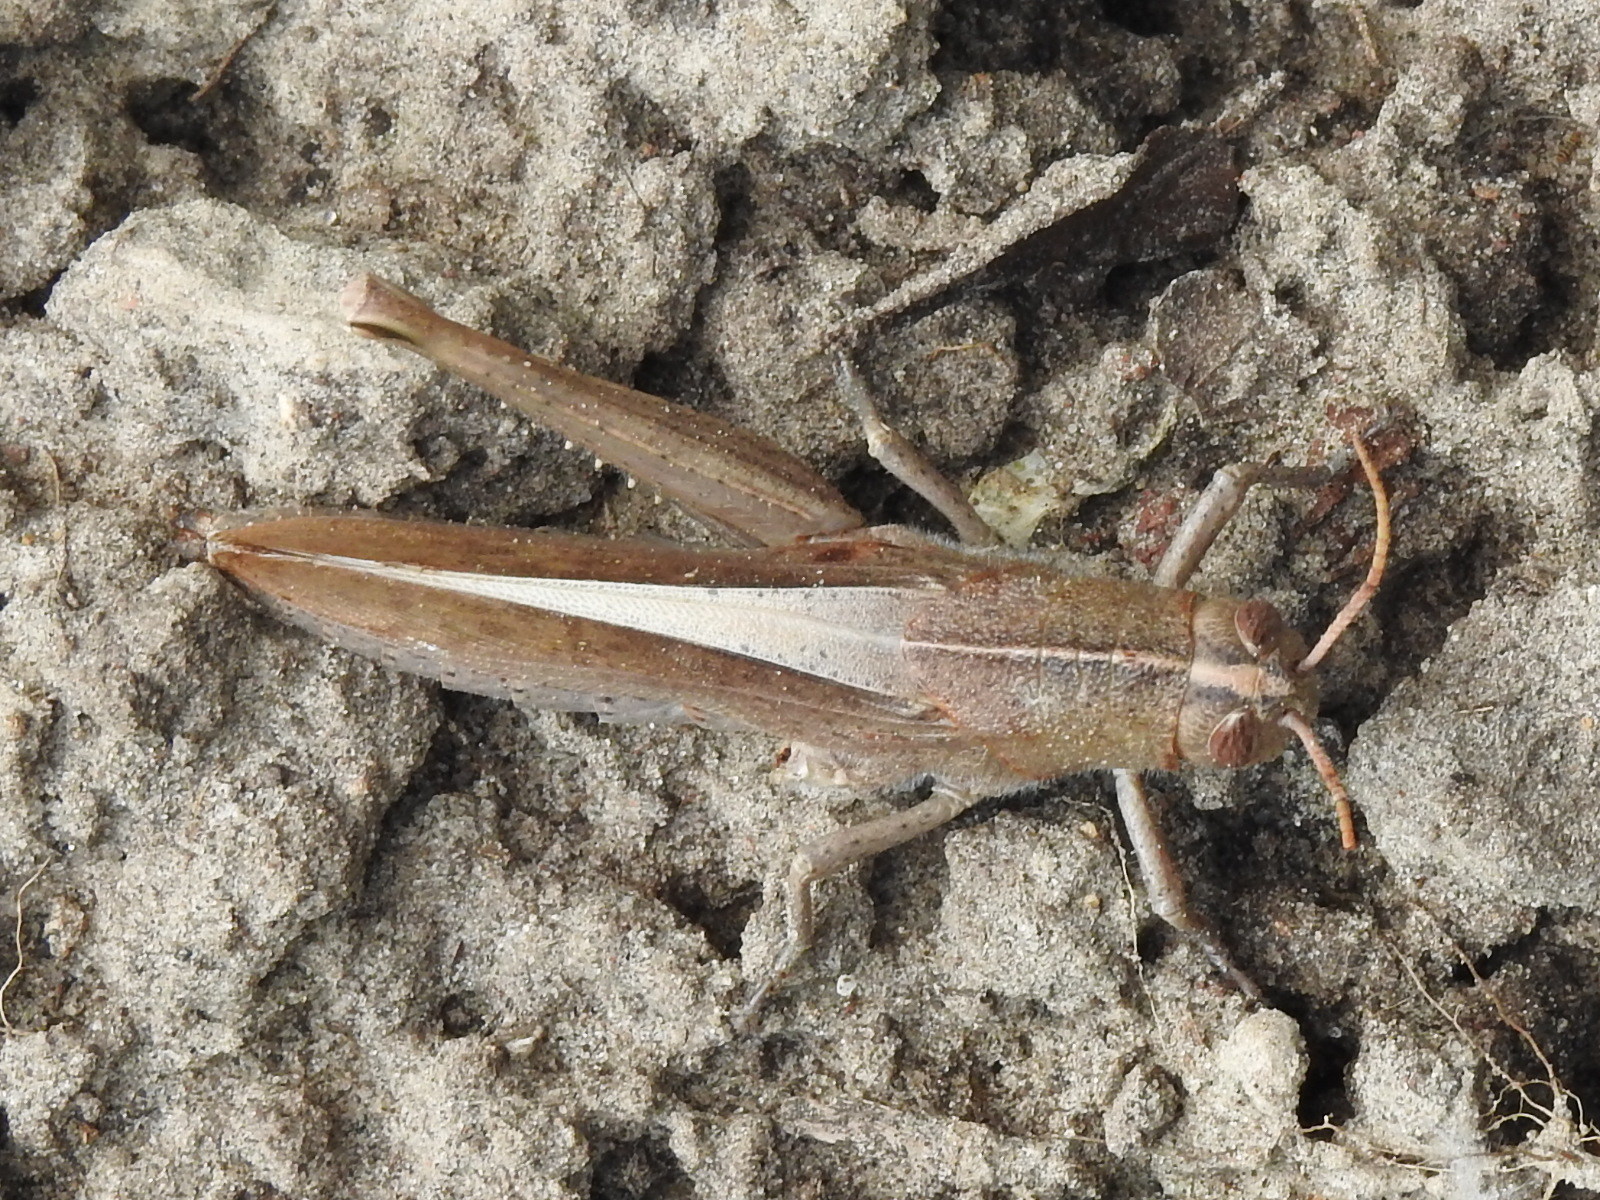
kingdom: Animalia
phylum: Arthropoda
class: Insecta
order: Orthoptera
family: Acrididae
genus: Schistocerca
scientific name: Schistocerca damnifica
